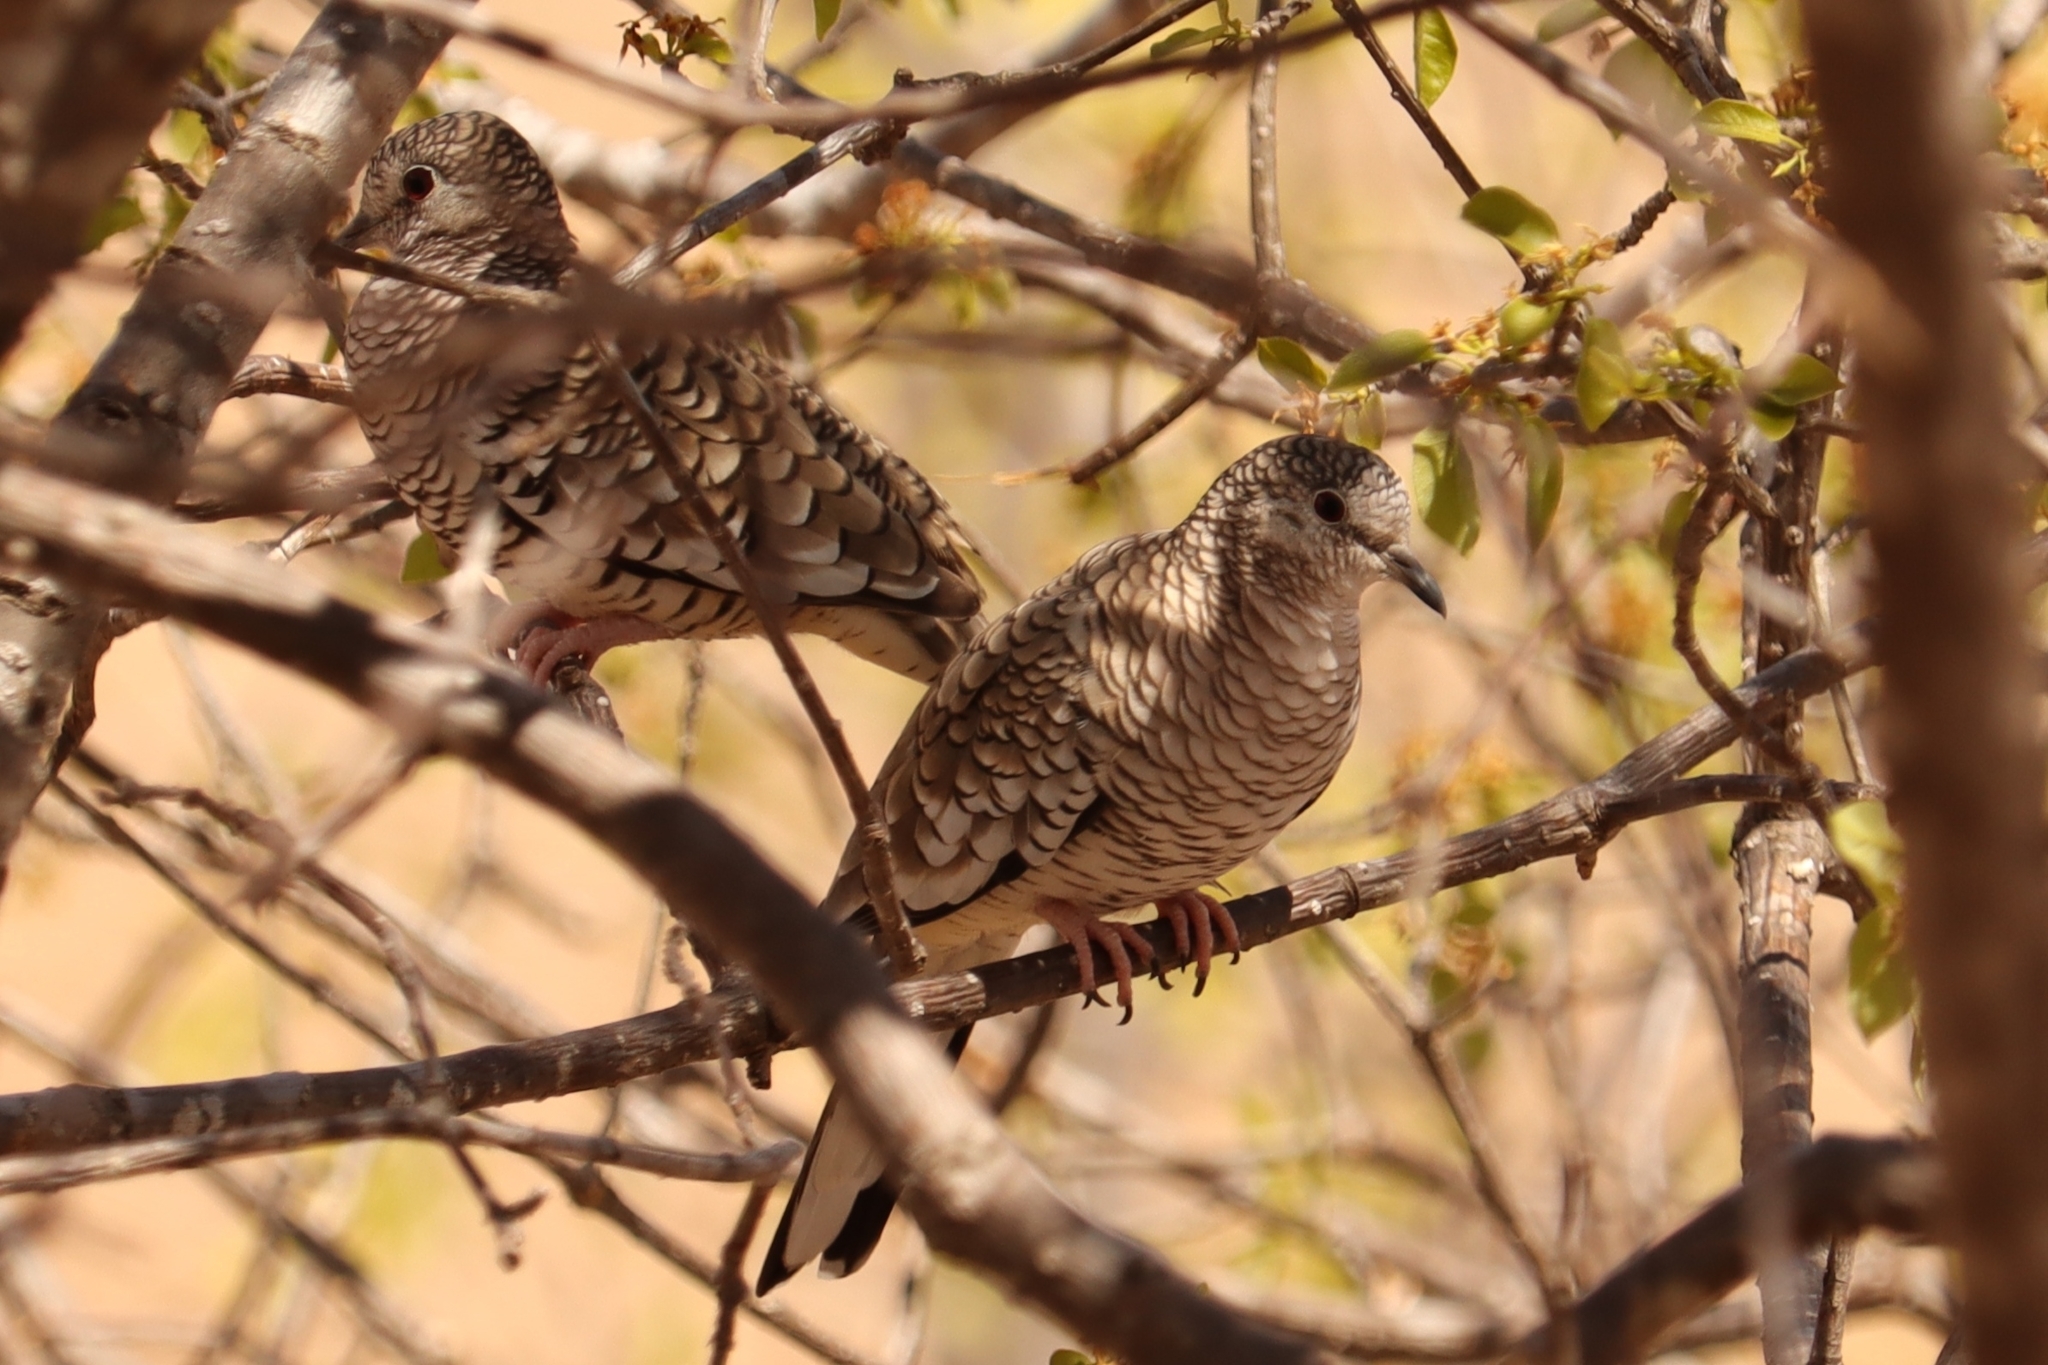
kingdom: Animalia
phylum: Chordata
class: Aves
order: Columbiformes
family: Columbidae
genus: Columbina
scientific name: Columbina squammata
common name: Scaled dove
